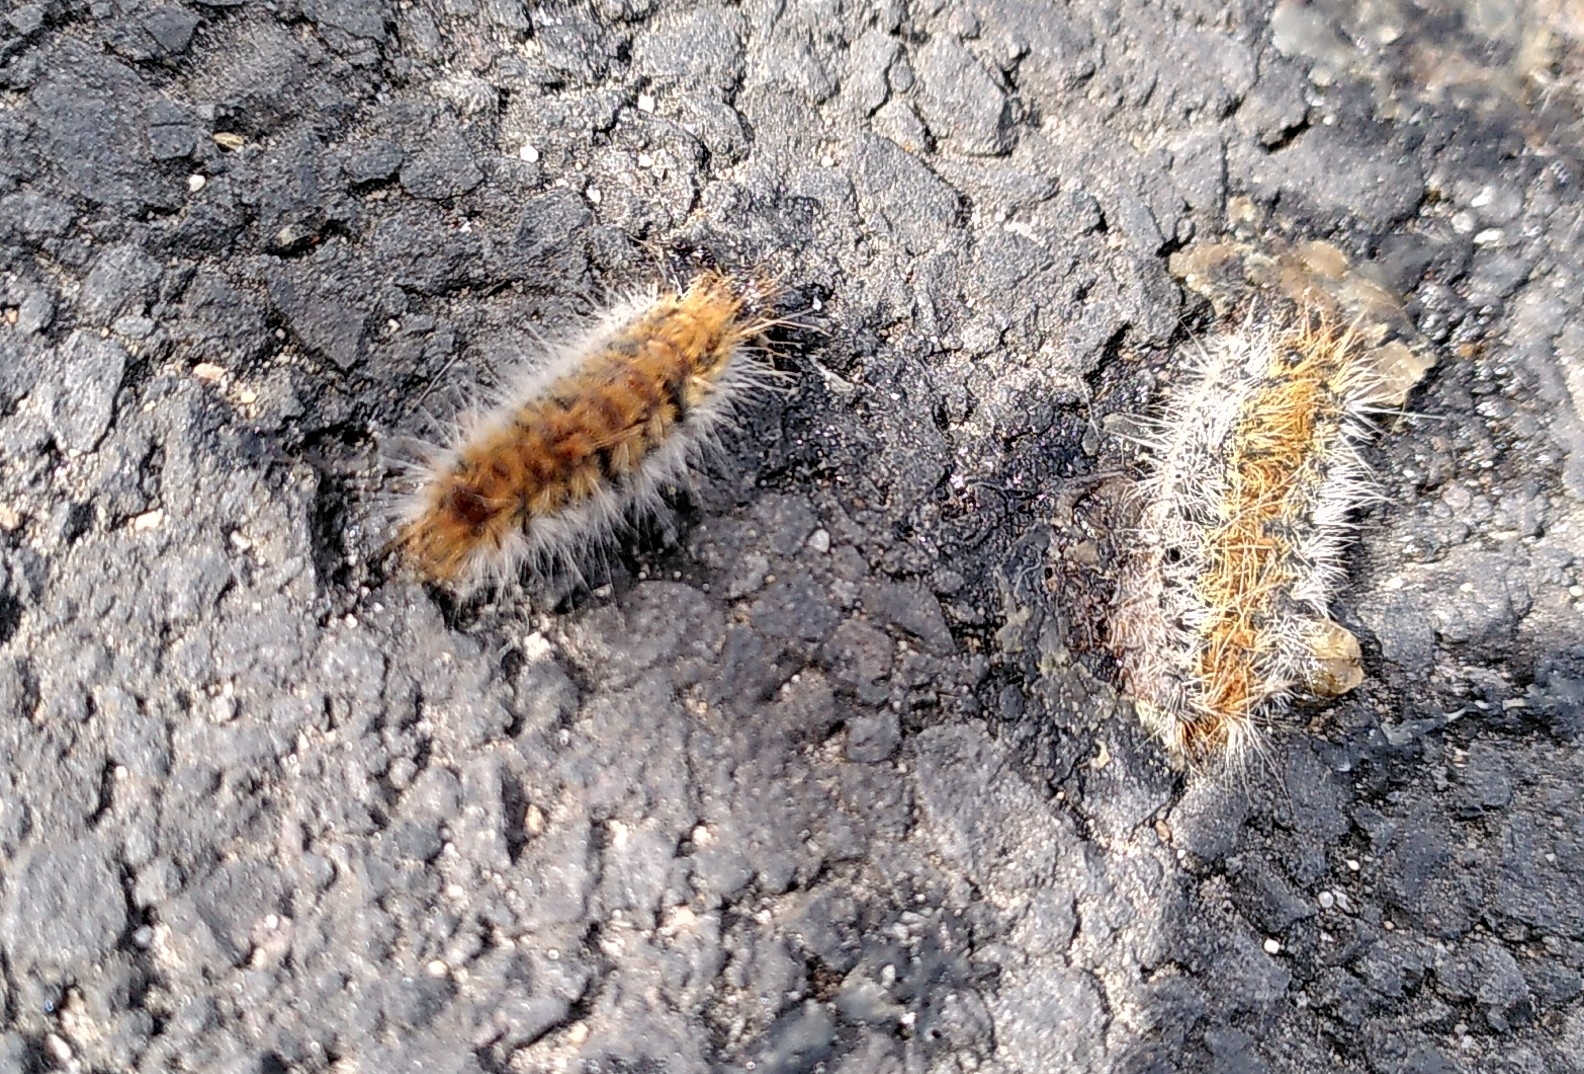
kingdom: Animalia
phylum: Arthropoda
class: Insecta
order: Lepidoptera
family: Notodontidae
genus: Thaumetopoea
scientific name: Thaumetopoea pityocampa
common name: Pine processionary
